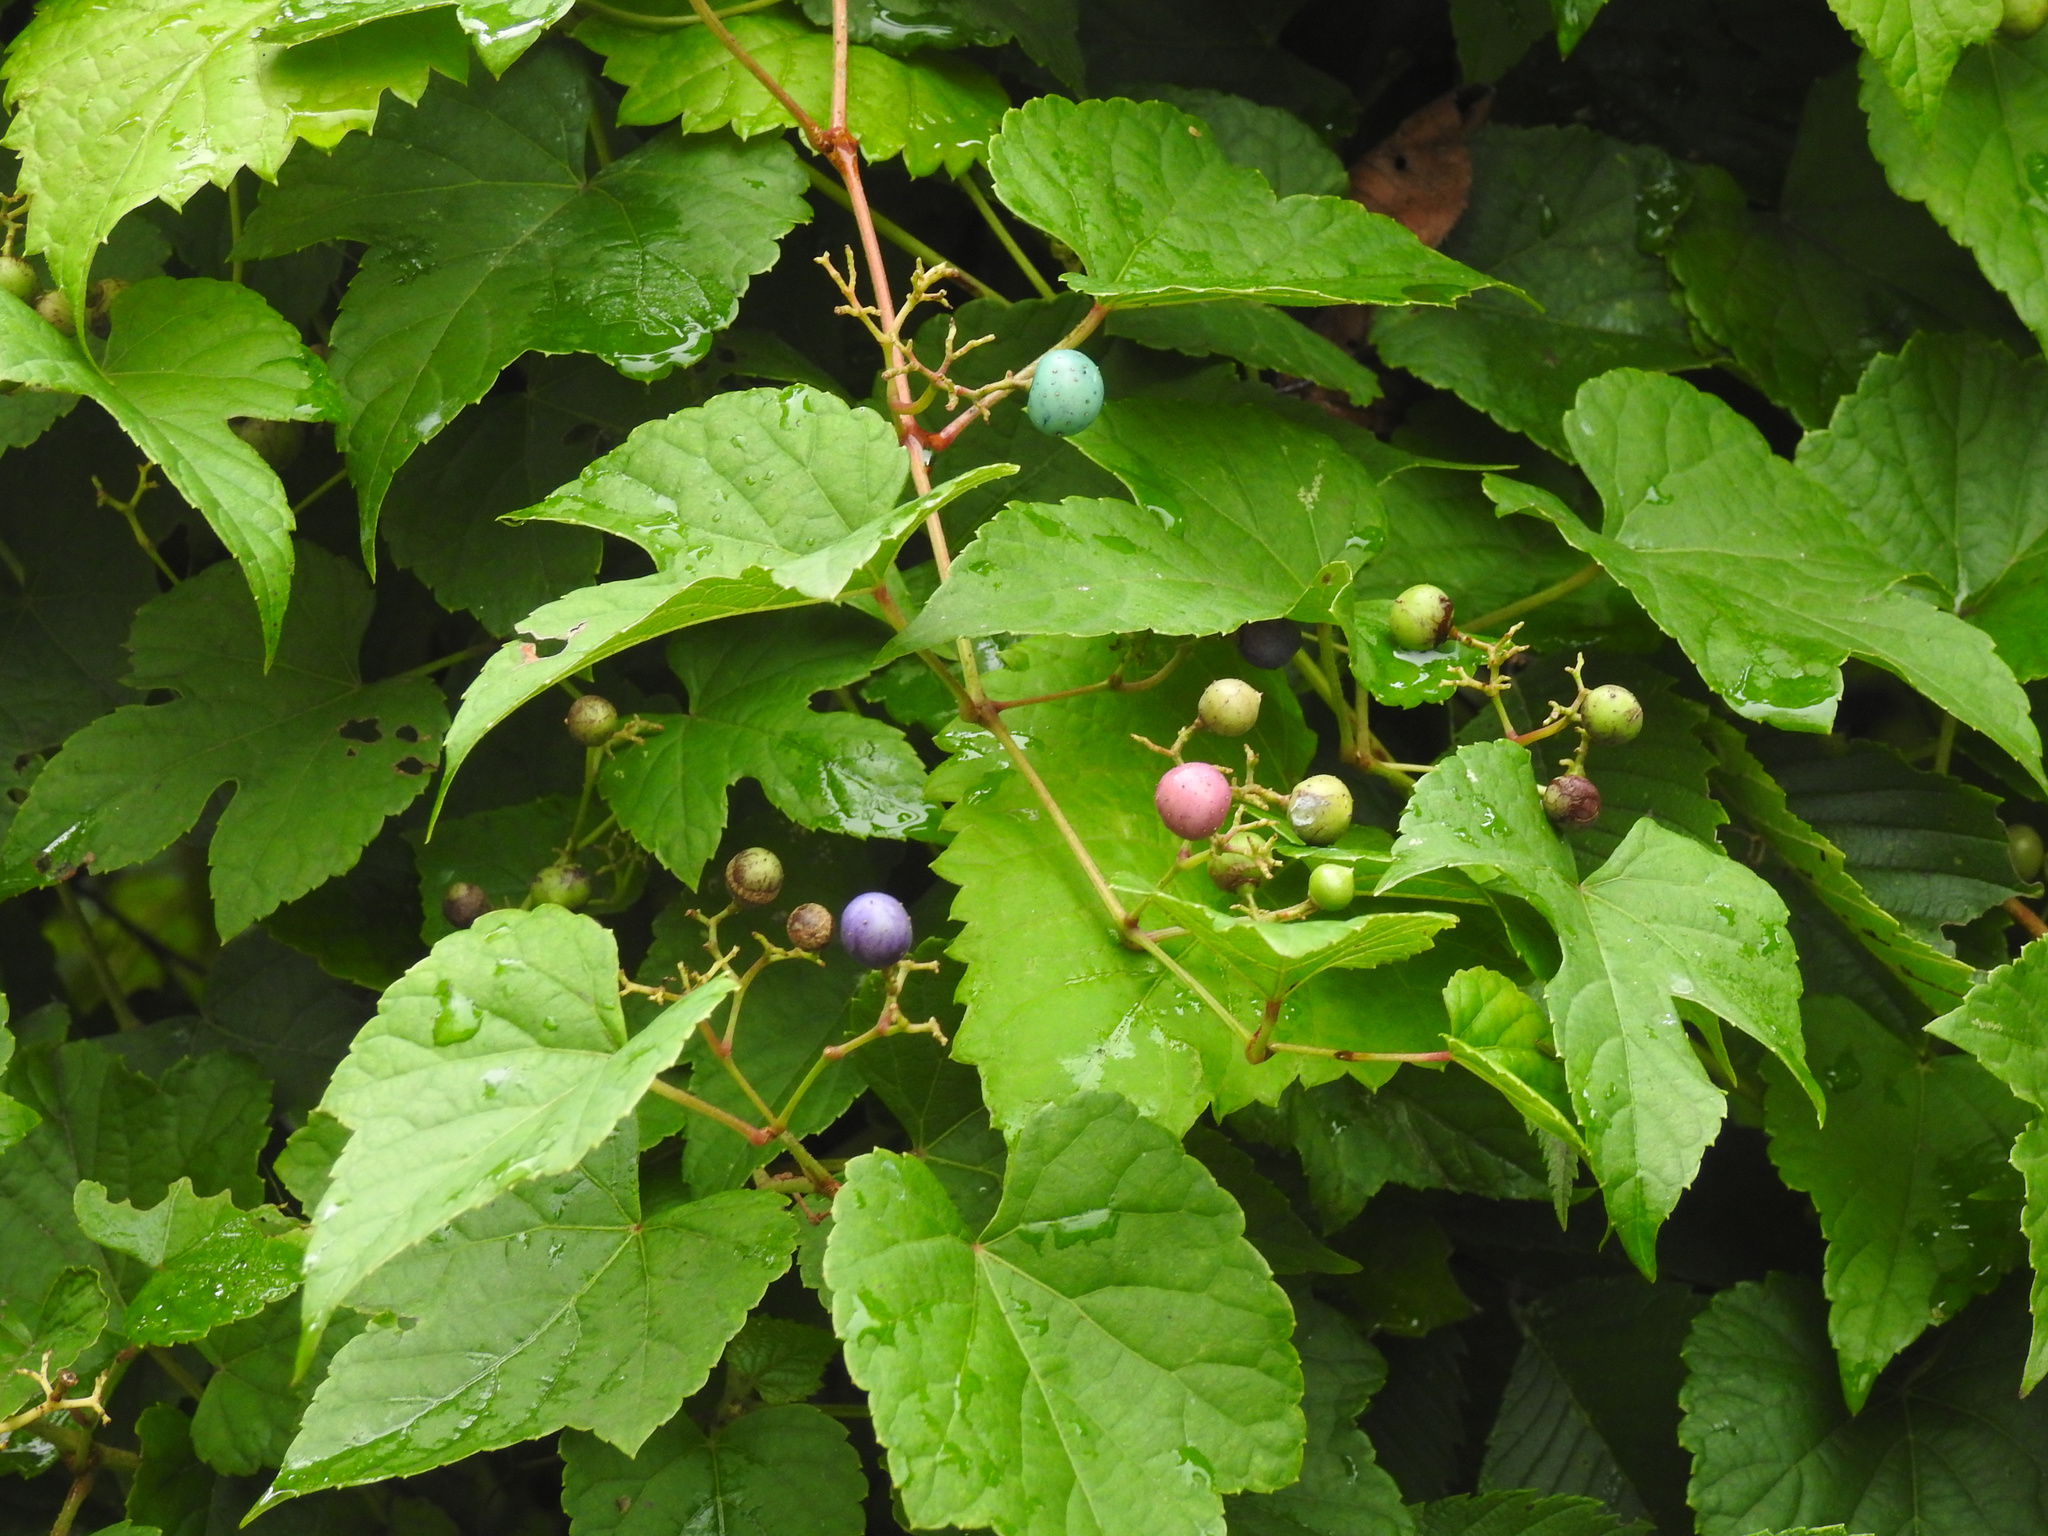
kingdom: Plantae
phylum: Tracheophyta
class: Magnoliopsida
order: Vitales
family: Vitaceae
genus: Ampelopsis
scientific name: Ampelopsis glandulosa
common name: Amur peppervine
